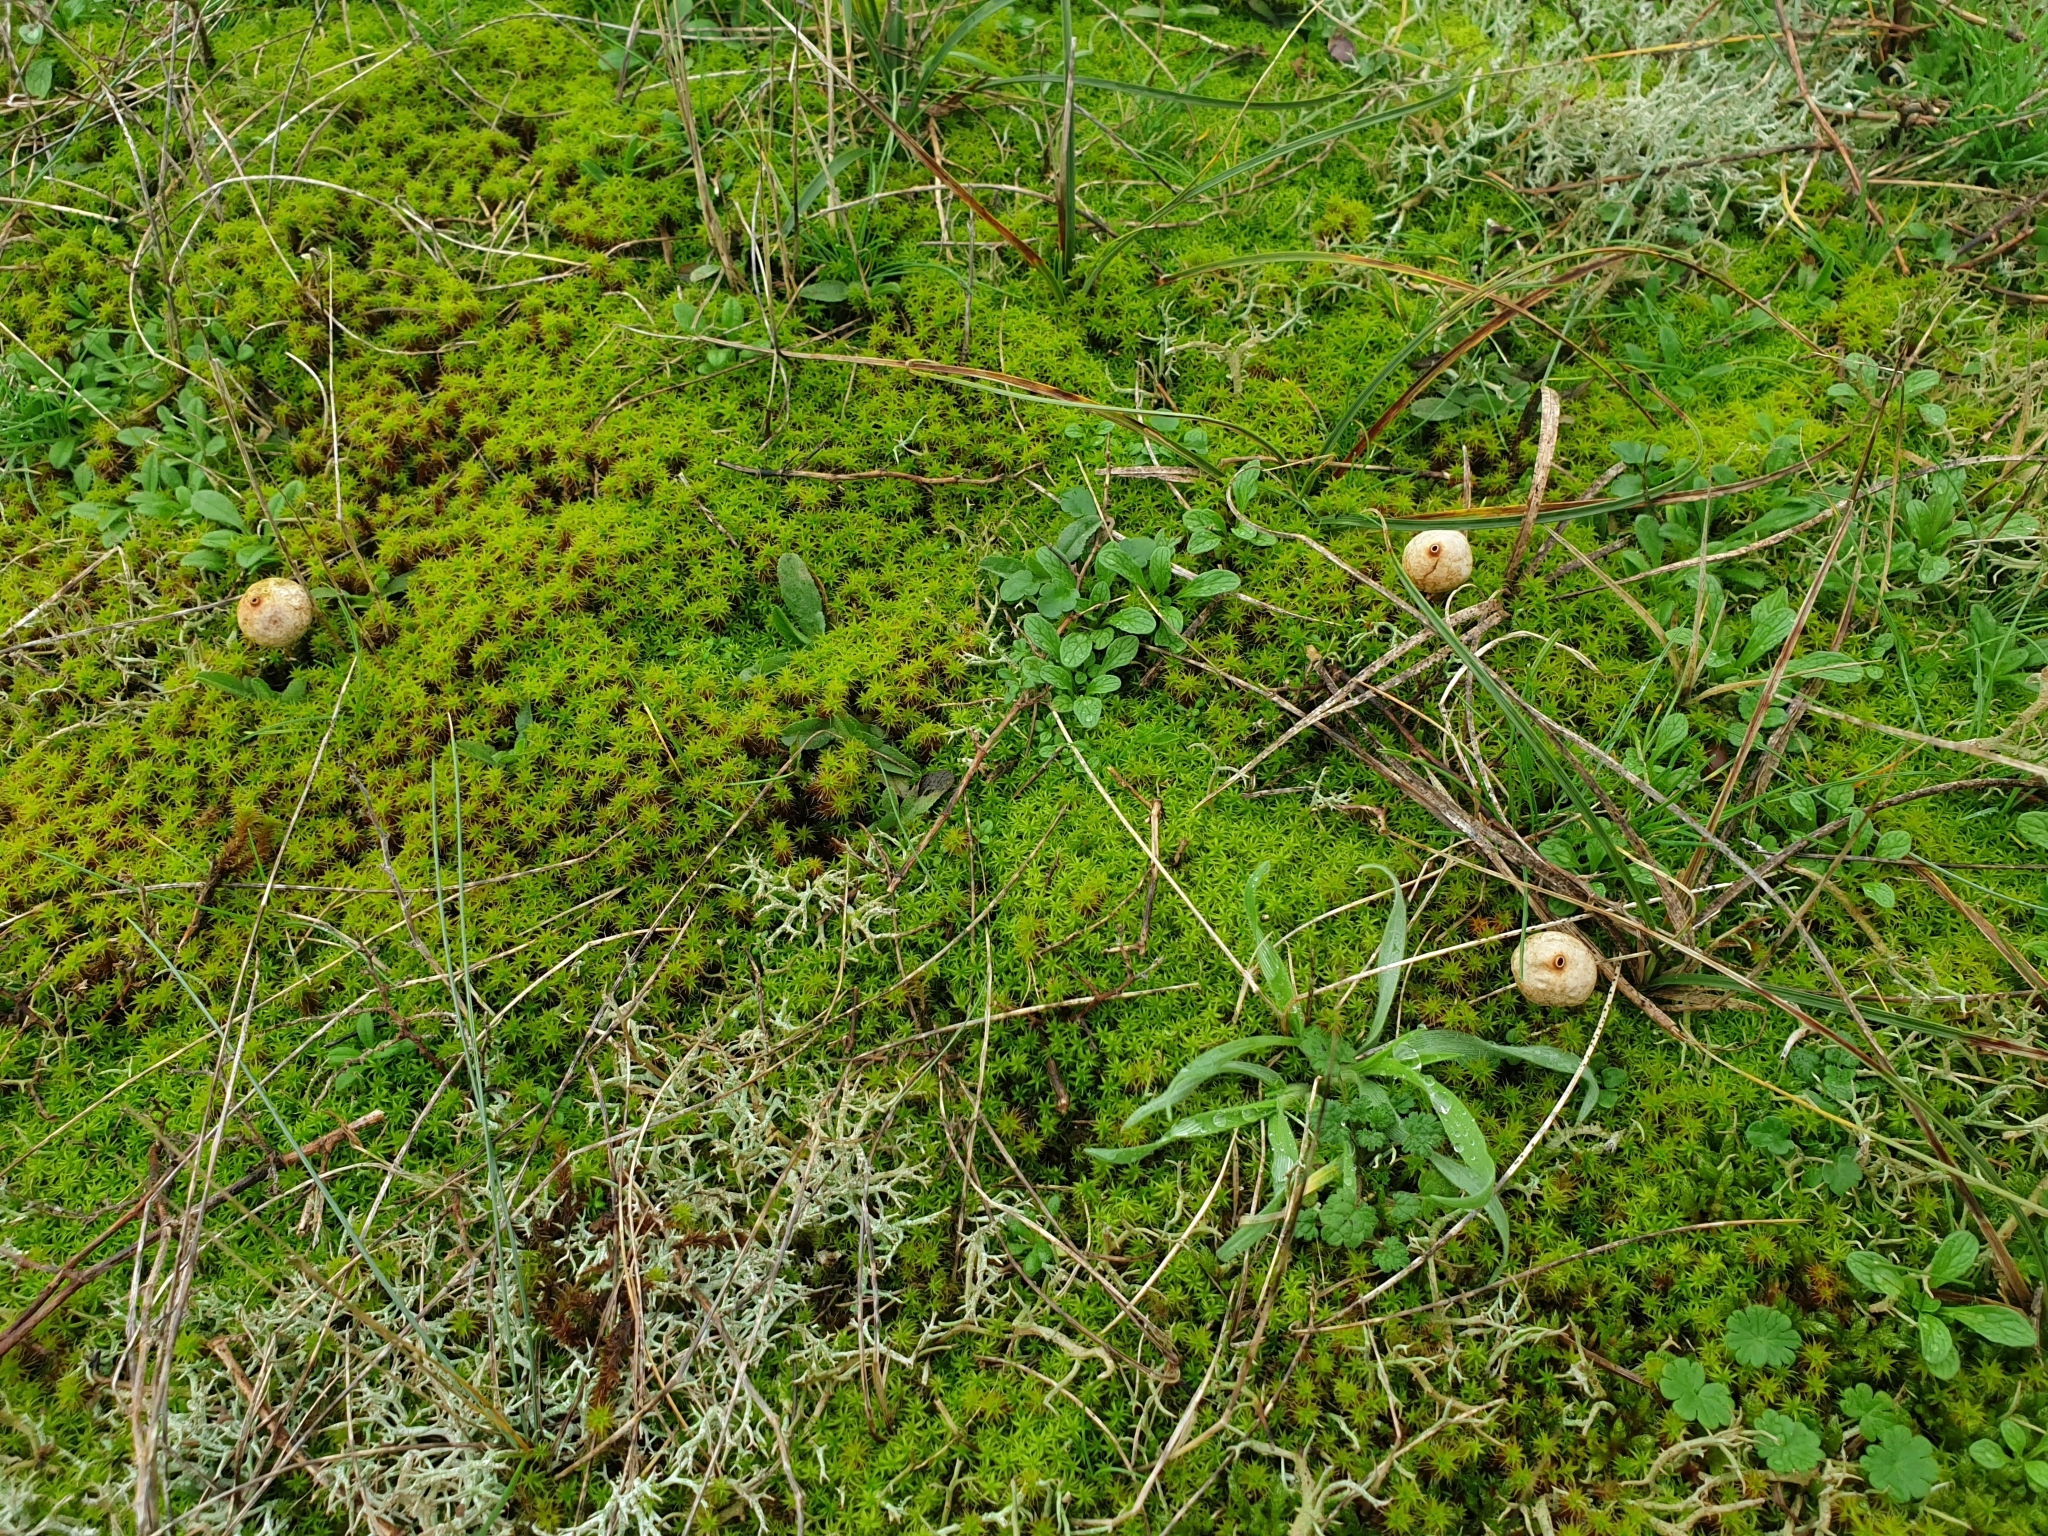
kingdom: Fungi
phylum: Basidiomycota
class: Agaricomycetes
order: Agaricales
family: Agaricaceae
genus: Tulostoma
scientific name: Tulostoma brumale
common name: Winter stalk puffball
